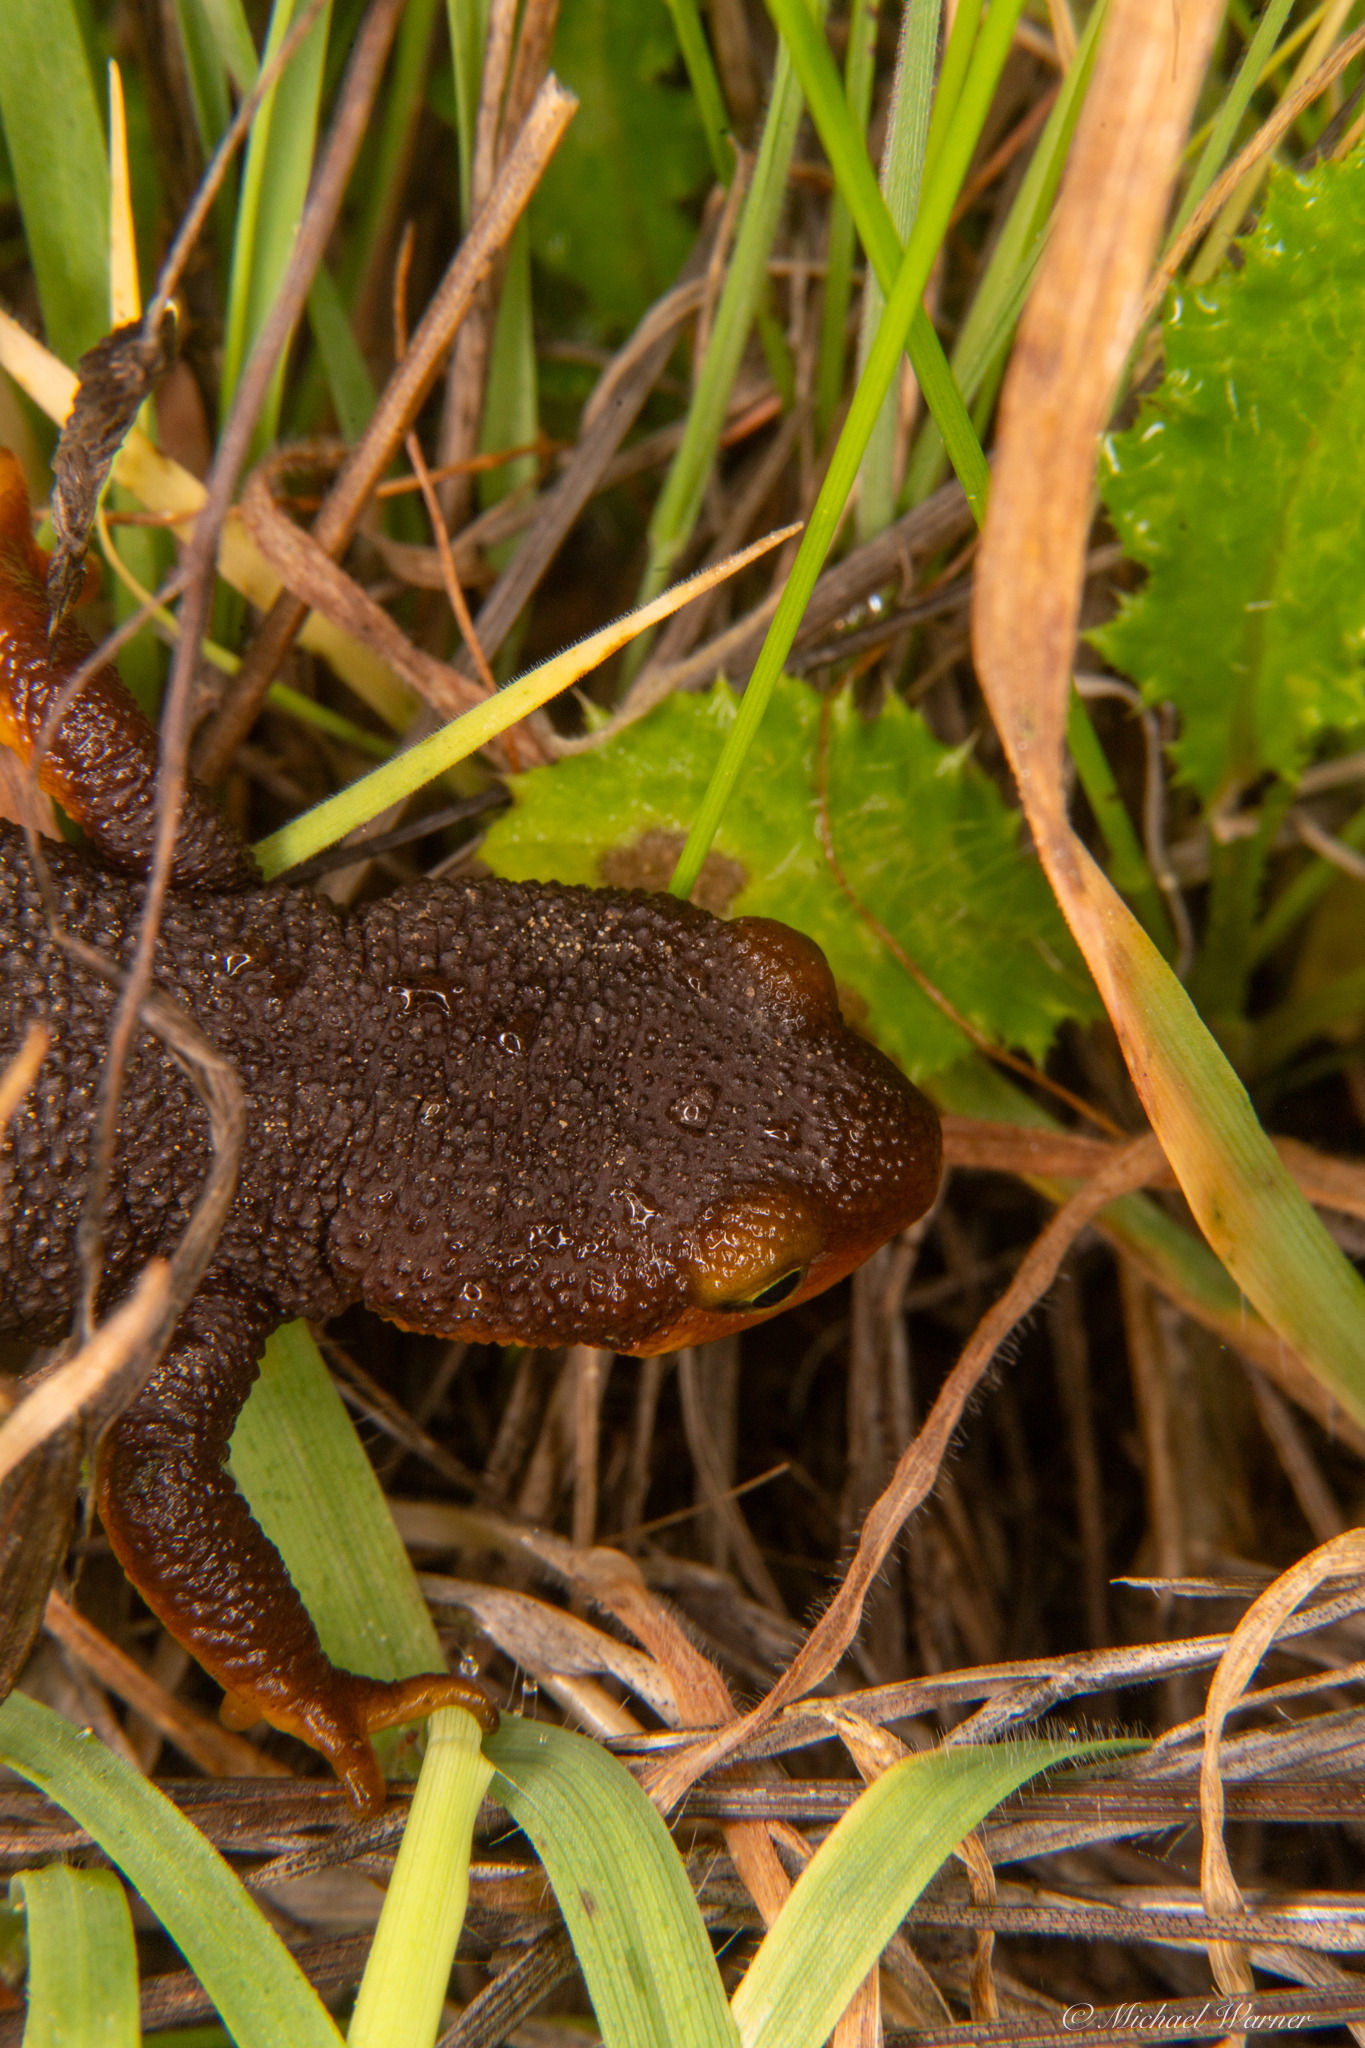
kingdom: Animalia
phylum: Chordata
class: Amphibia
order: Caudata
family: Salamandridae
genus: Taricha
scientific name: Taricha torosa
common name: California newt
